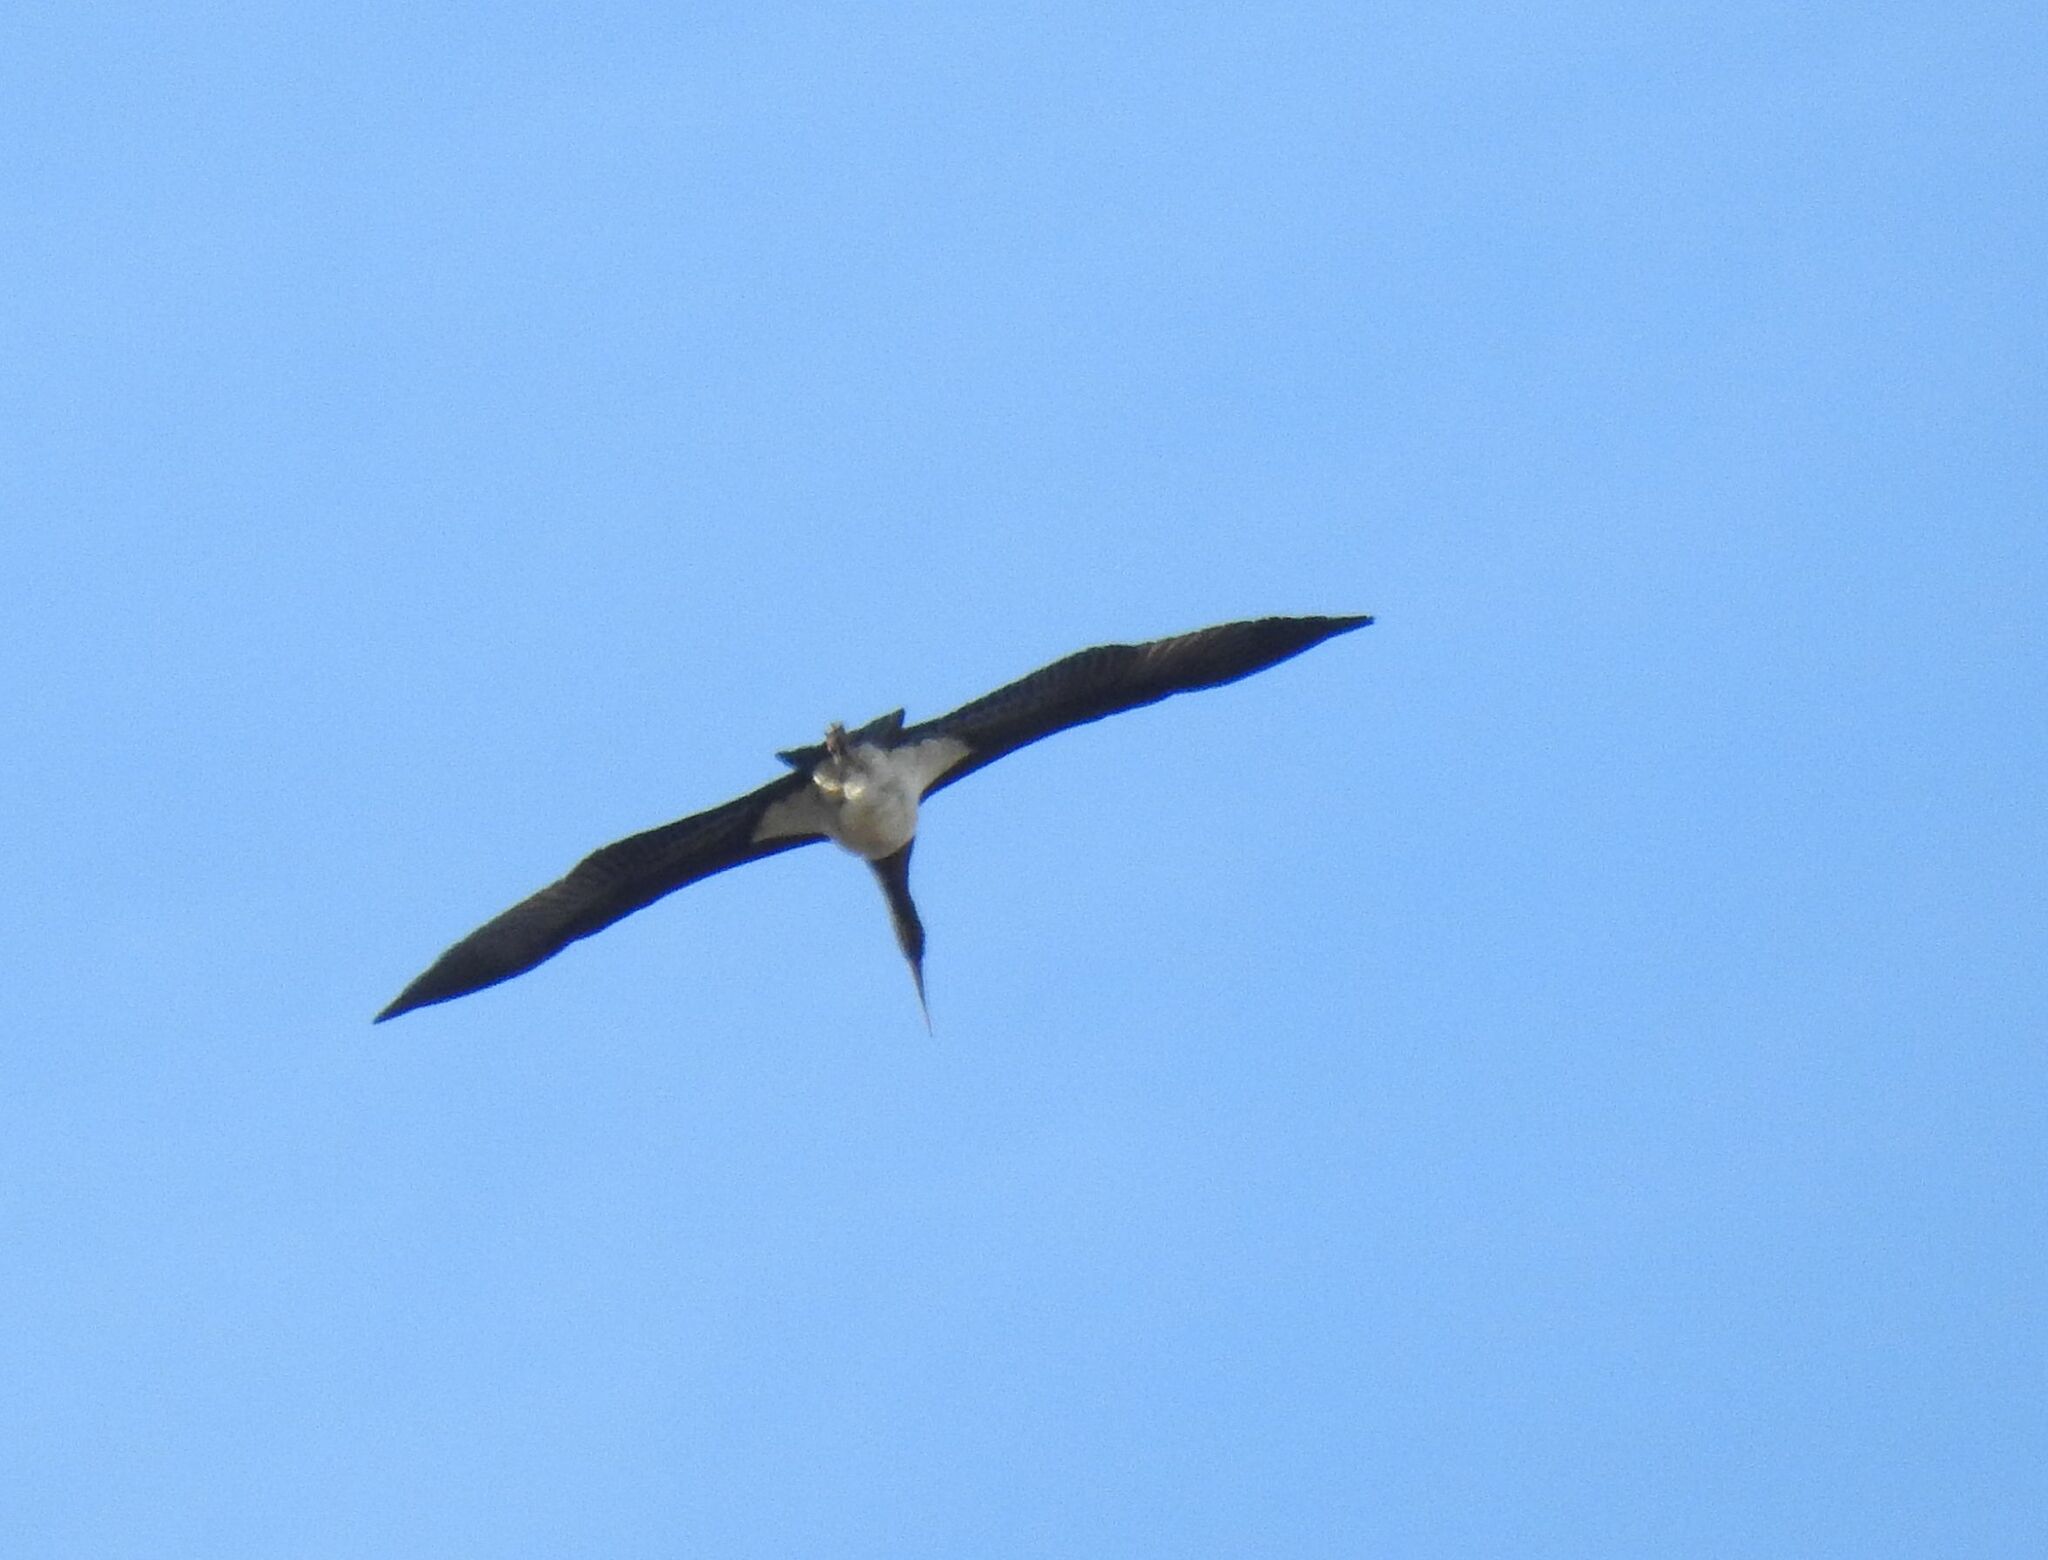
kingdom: Animalia
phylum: Chordata
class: Aves
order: Ciconiiformes
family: Ciconiidae
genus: Ciconia
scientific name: Ciconia nigra
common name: Black stork
